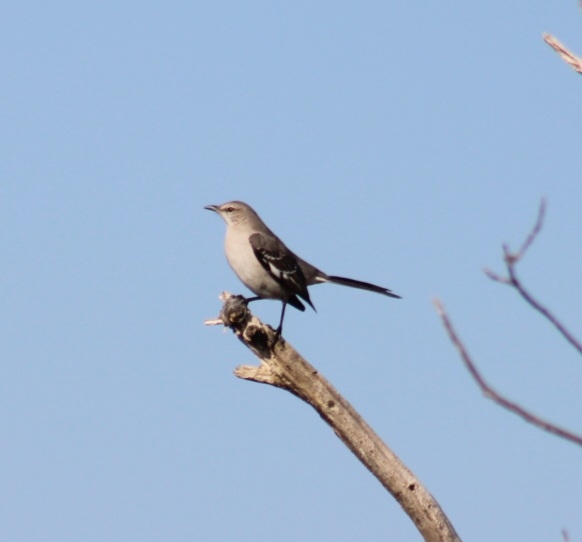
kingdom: Animalia
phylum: Chordata
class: Aves
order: Passeriformes
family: Mimidae
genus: Mimus
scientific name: Mimus polyglottos
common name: Northern mockingbird
